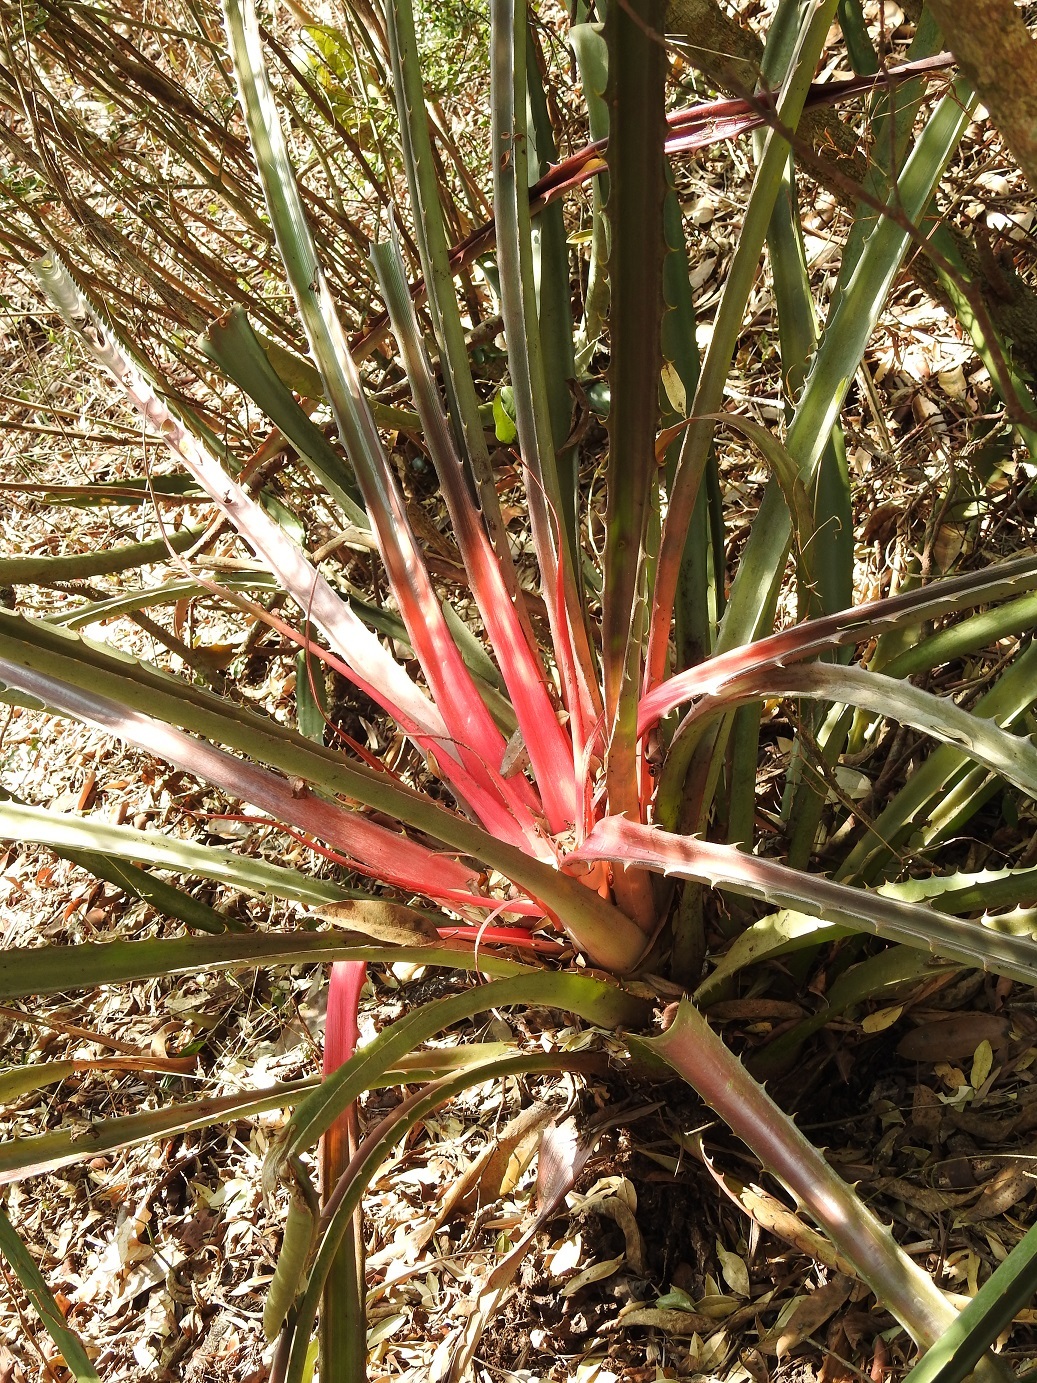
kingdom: Plantae
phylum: Tracheophyta
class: Liliopsida
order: Poales
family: Bromeliaceae
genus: Bromelia
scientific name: Bromelia karatas
